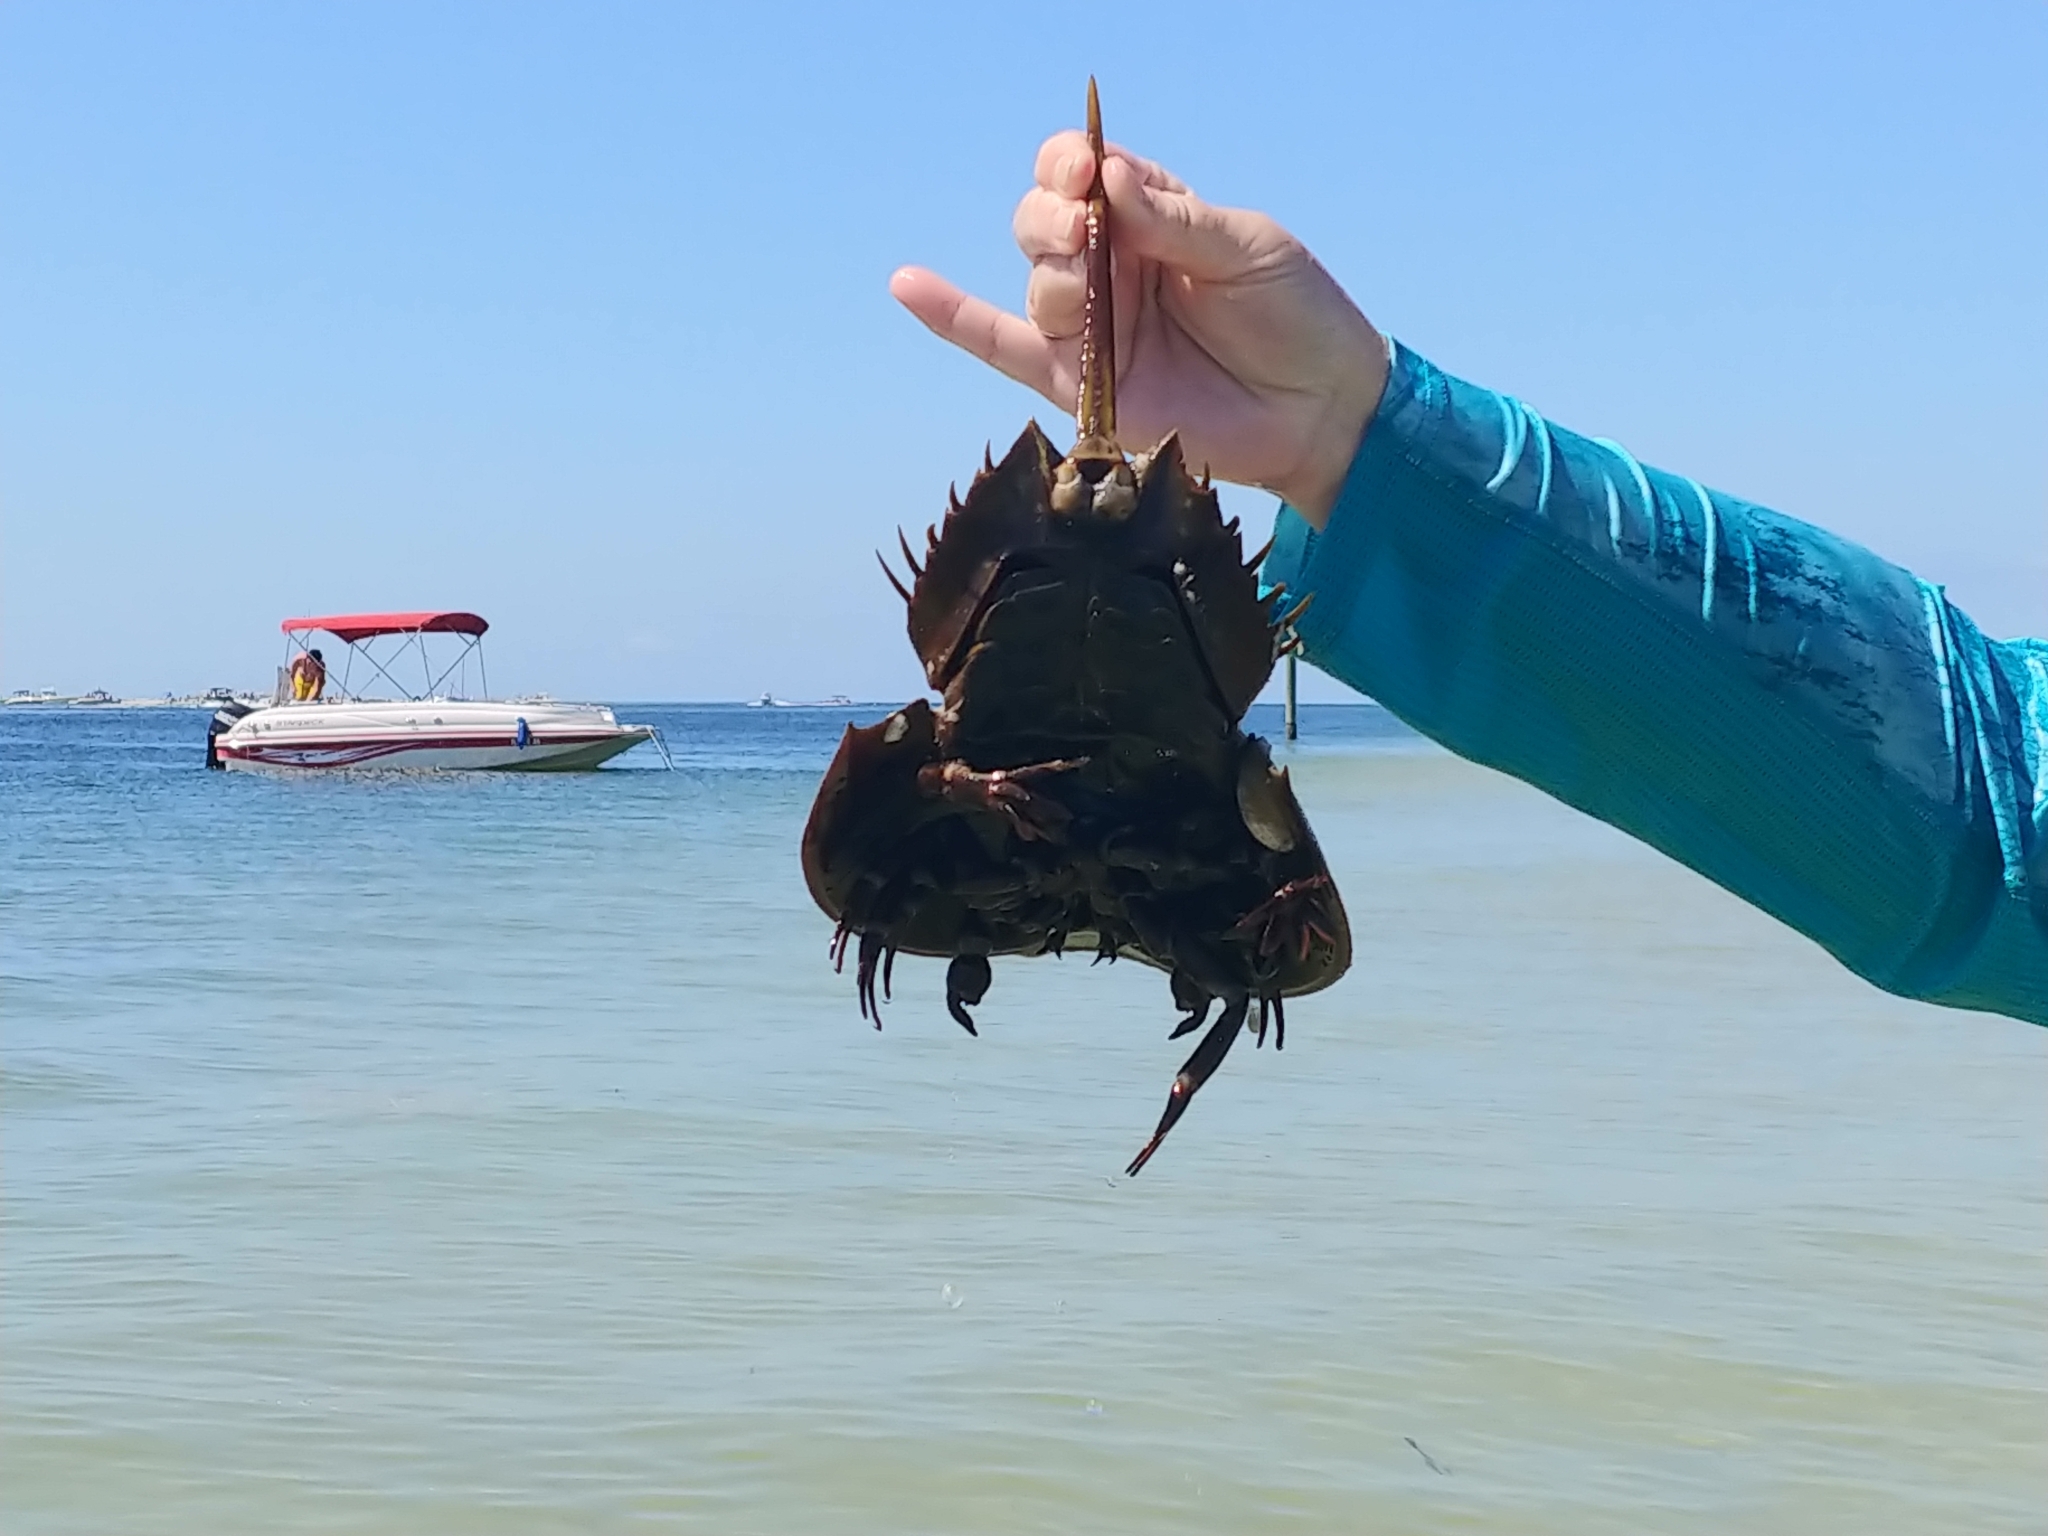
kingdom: Animalia
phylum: Arthropoda
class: Merostomata
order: Xiphosurida
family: Limulidae
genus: Limulus
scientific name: Limulus polyphemus
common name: Horseshoe crab
